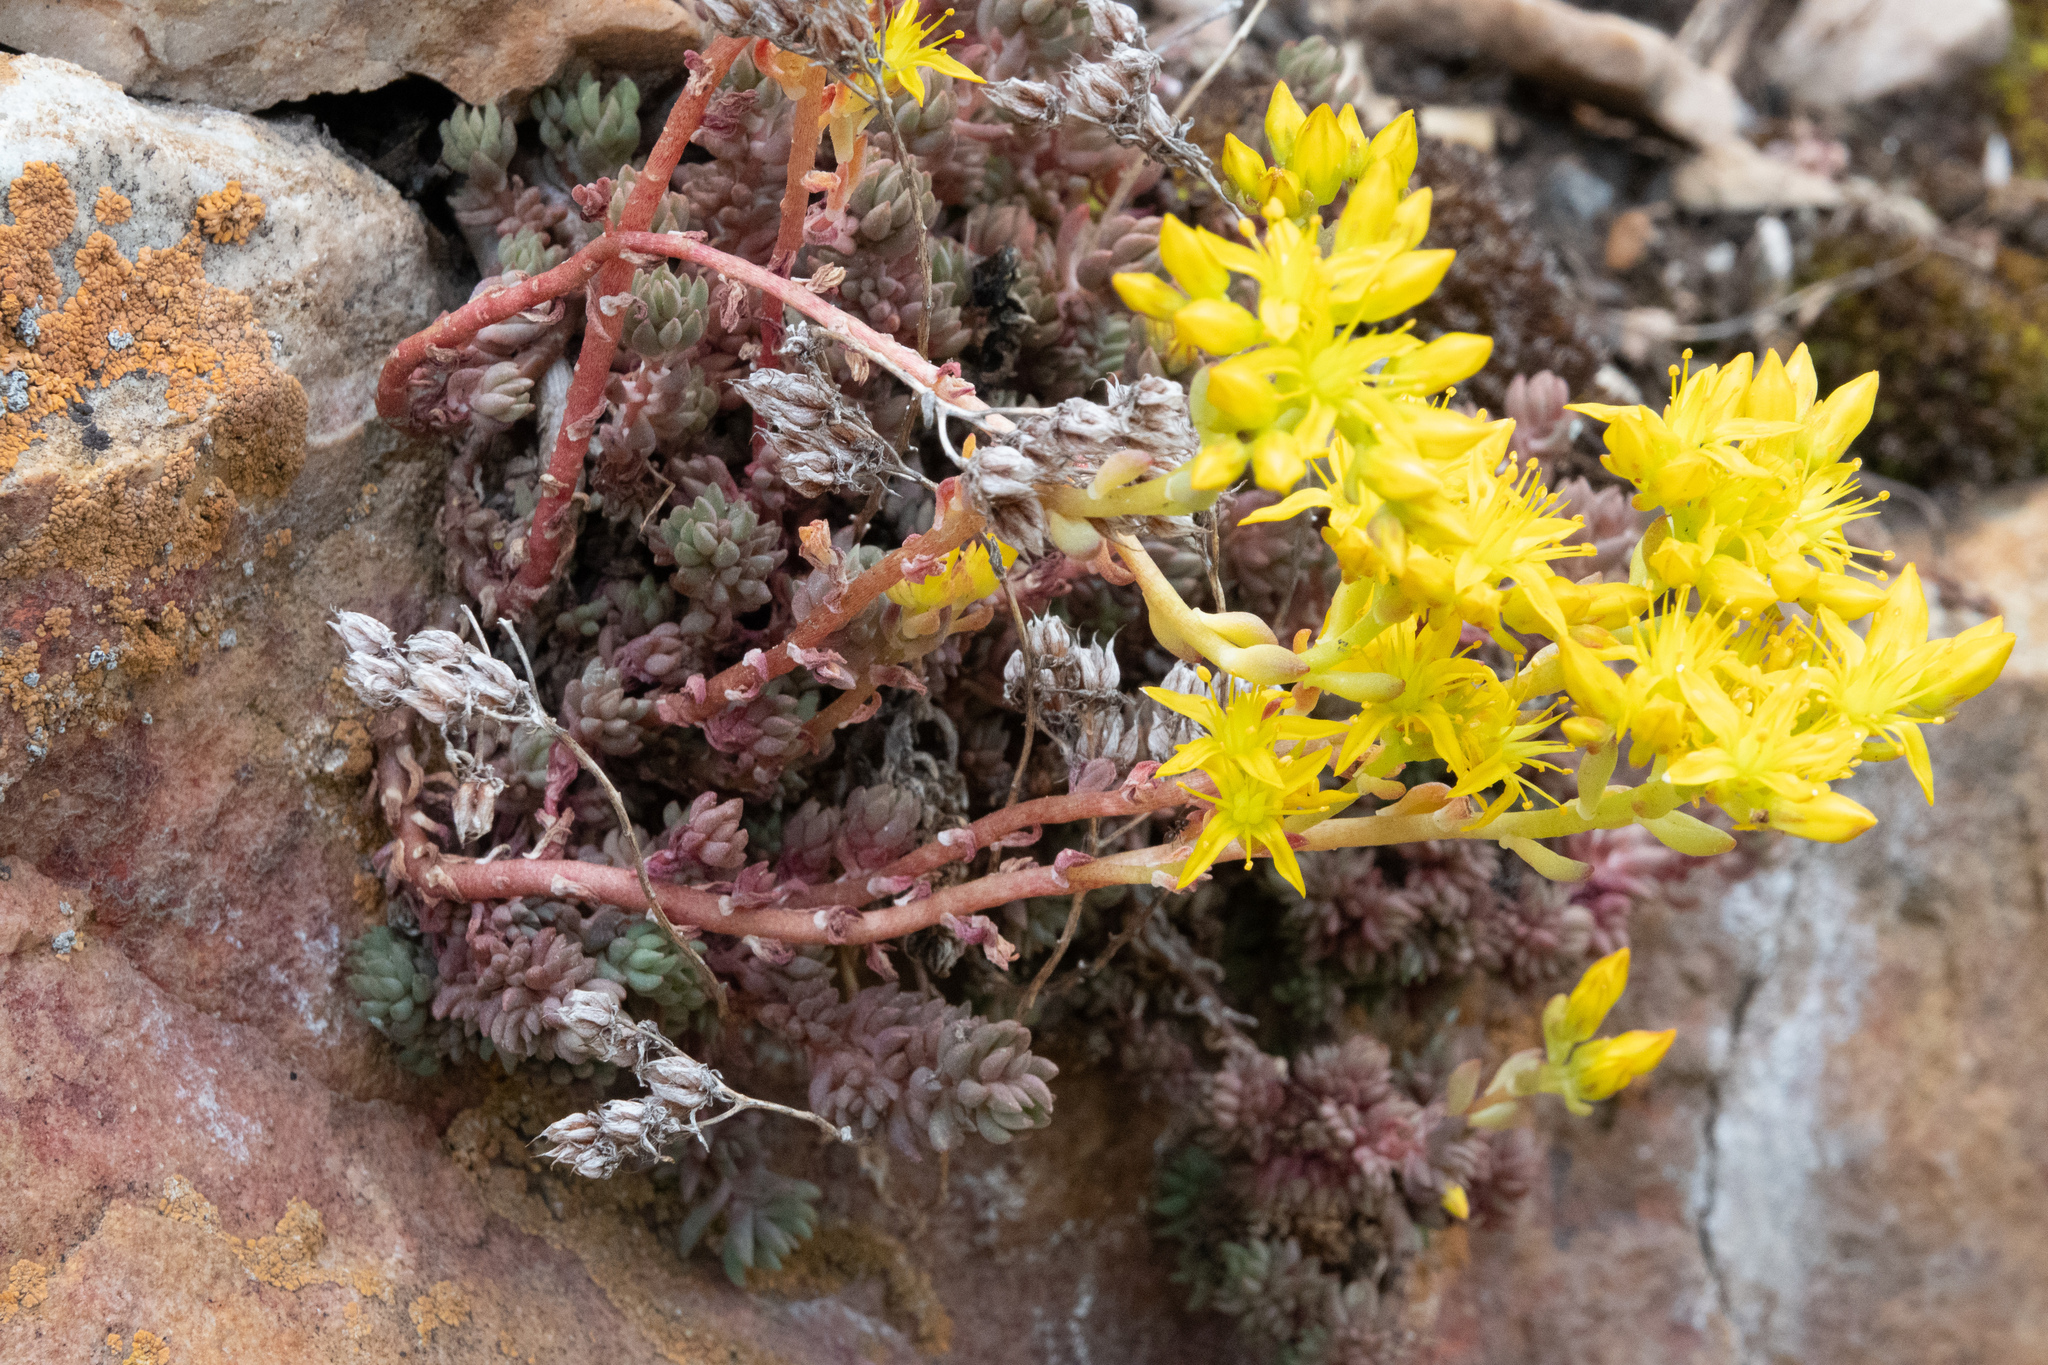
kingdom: Plantae
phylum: Tracheophyta
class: Magnoliopsida
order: Saxifragales
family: Crassulaceae
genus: Sedum
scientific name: Sedum lanceolatum
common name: Common stonecrop
